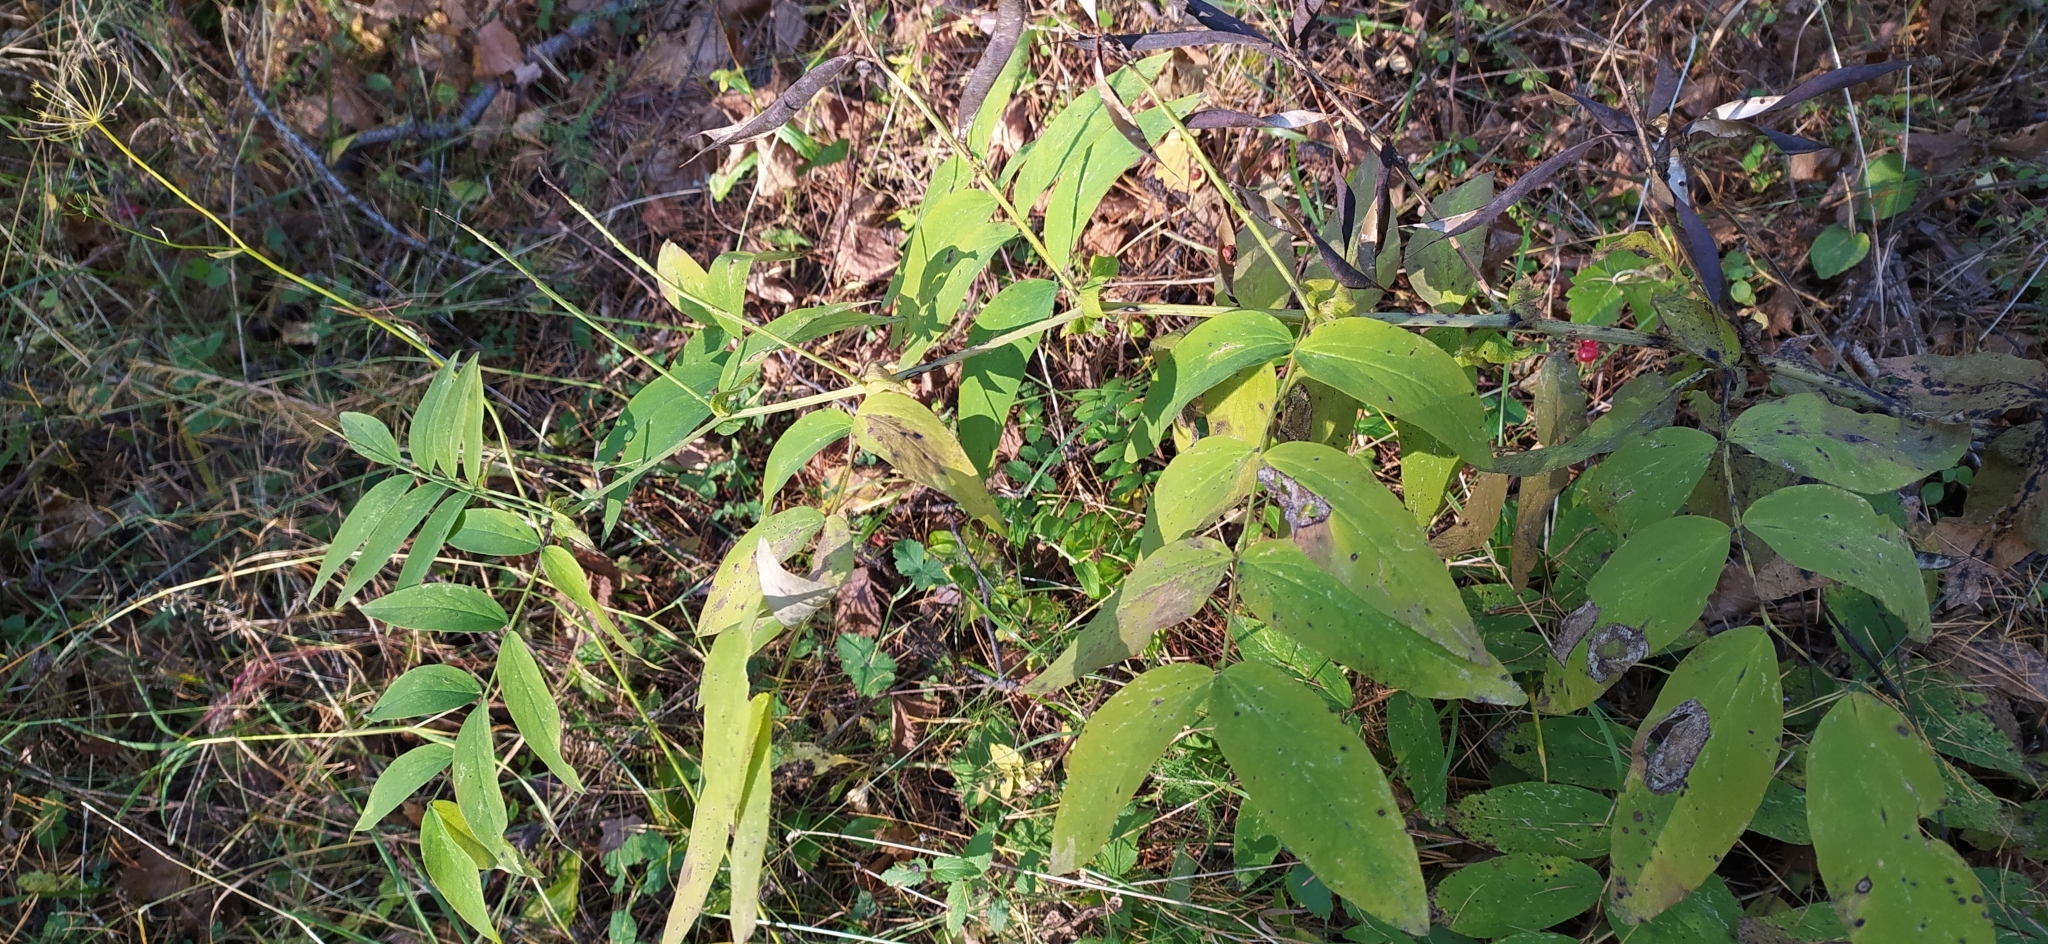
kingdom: Plantae
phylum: Tracheophyta
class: Magnoliopsida
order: Fabales
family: Fabaceae
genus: Lathyrus
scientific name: Lathyrus gmelinii
